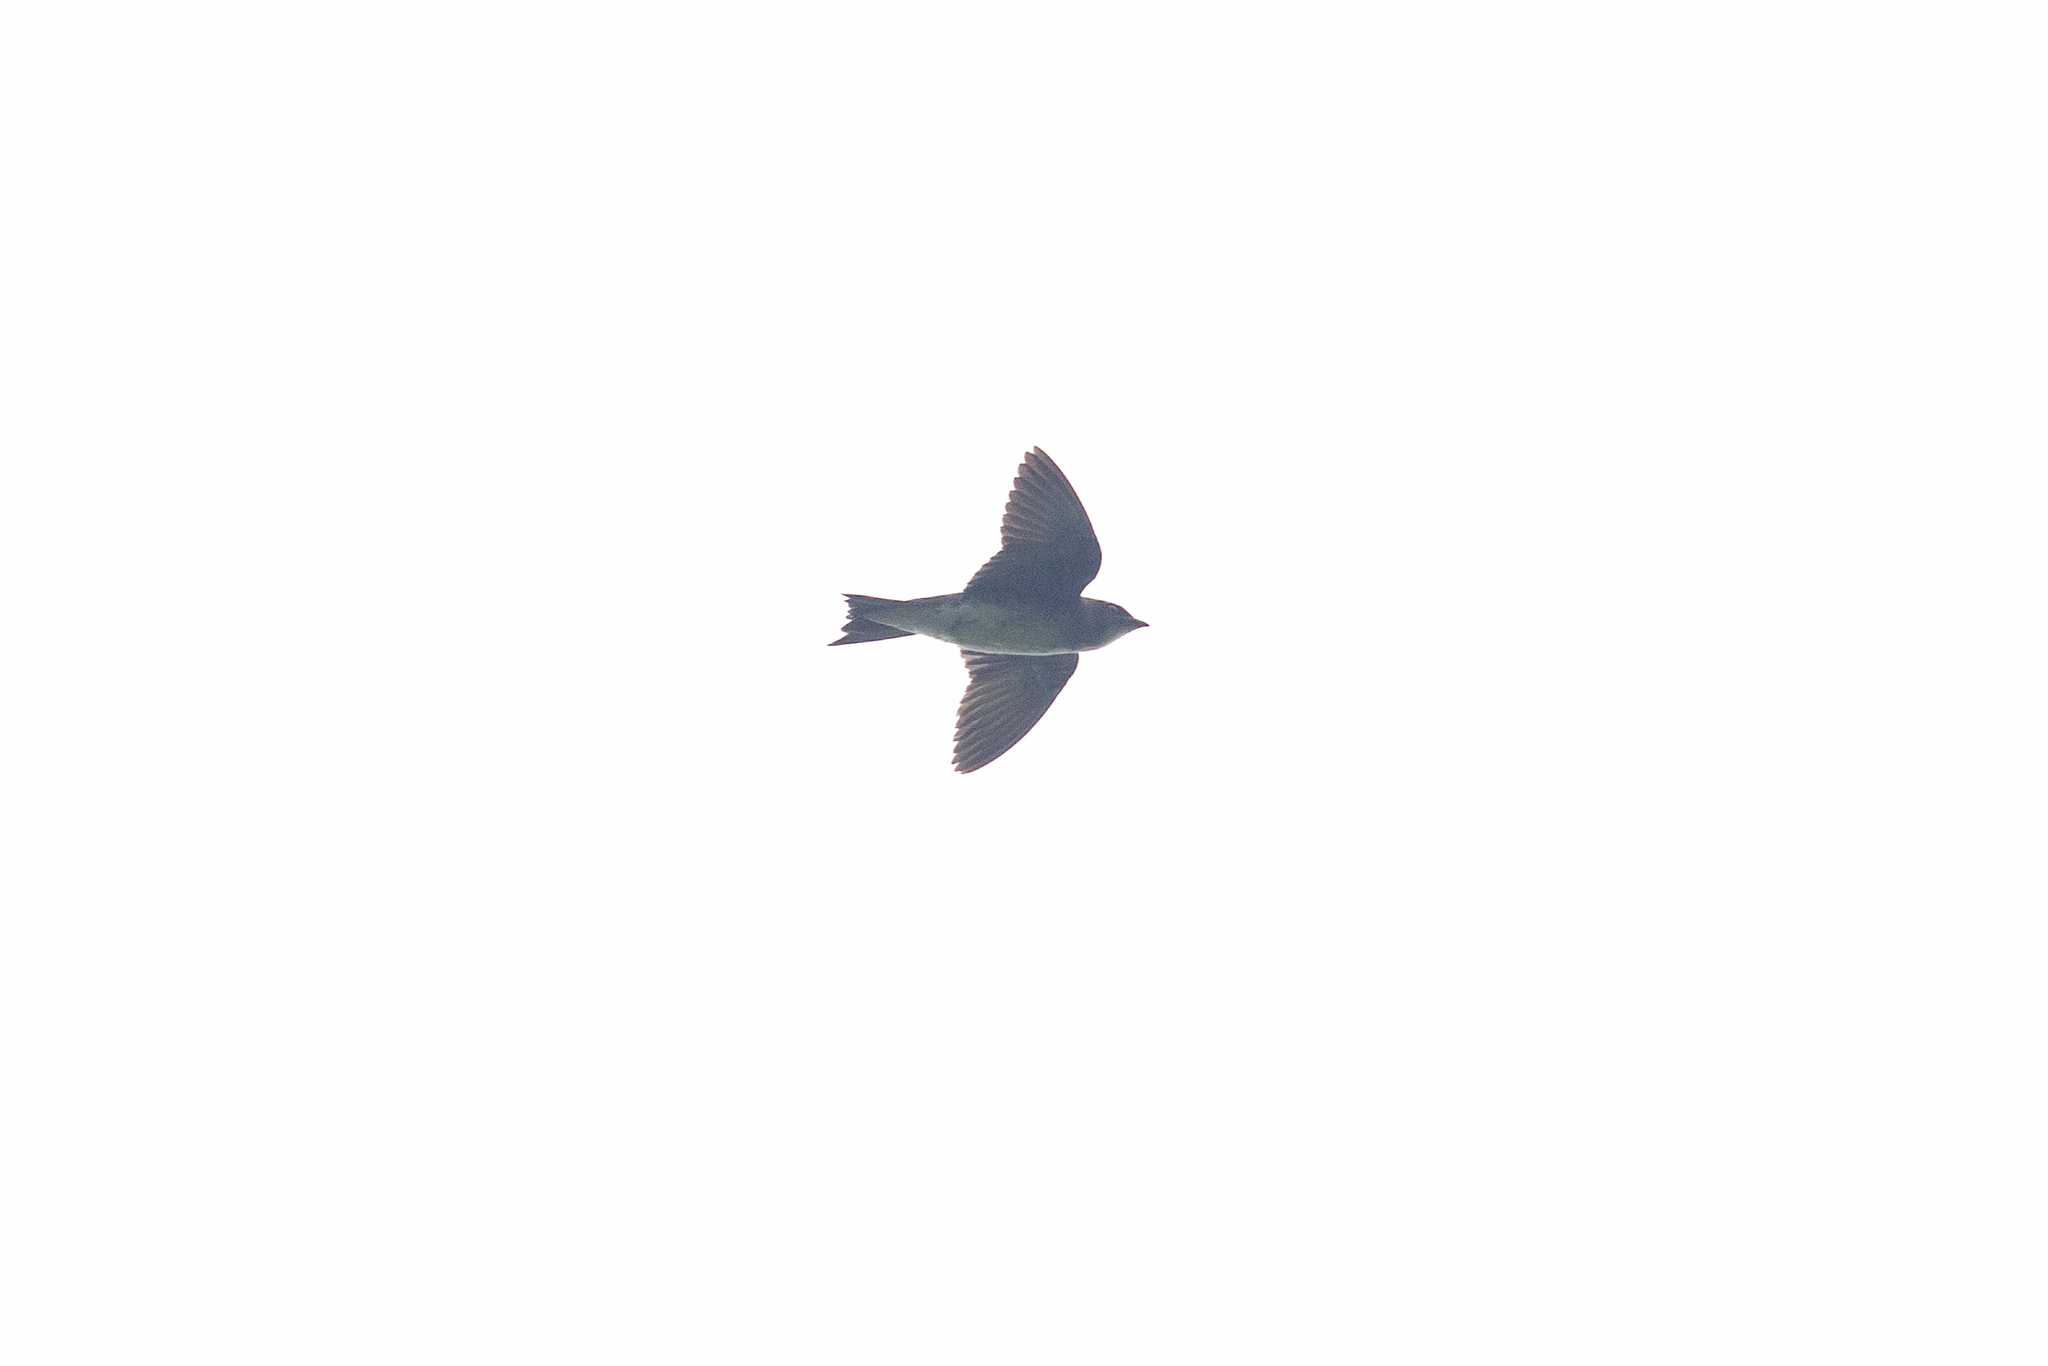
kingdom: Animalia
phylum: Chordata
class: Aves
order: Passeriformes
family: Hirundinidae
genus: Progne
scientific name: Progne chalybea
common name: Grey-breasted martin
